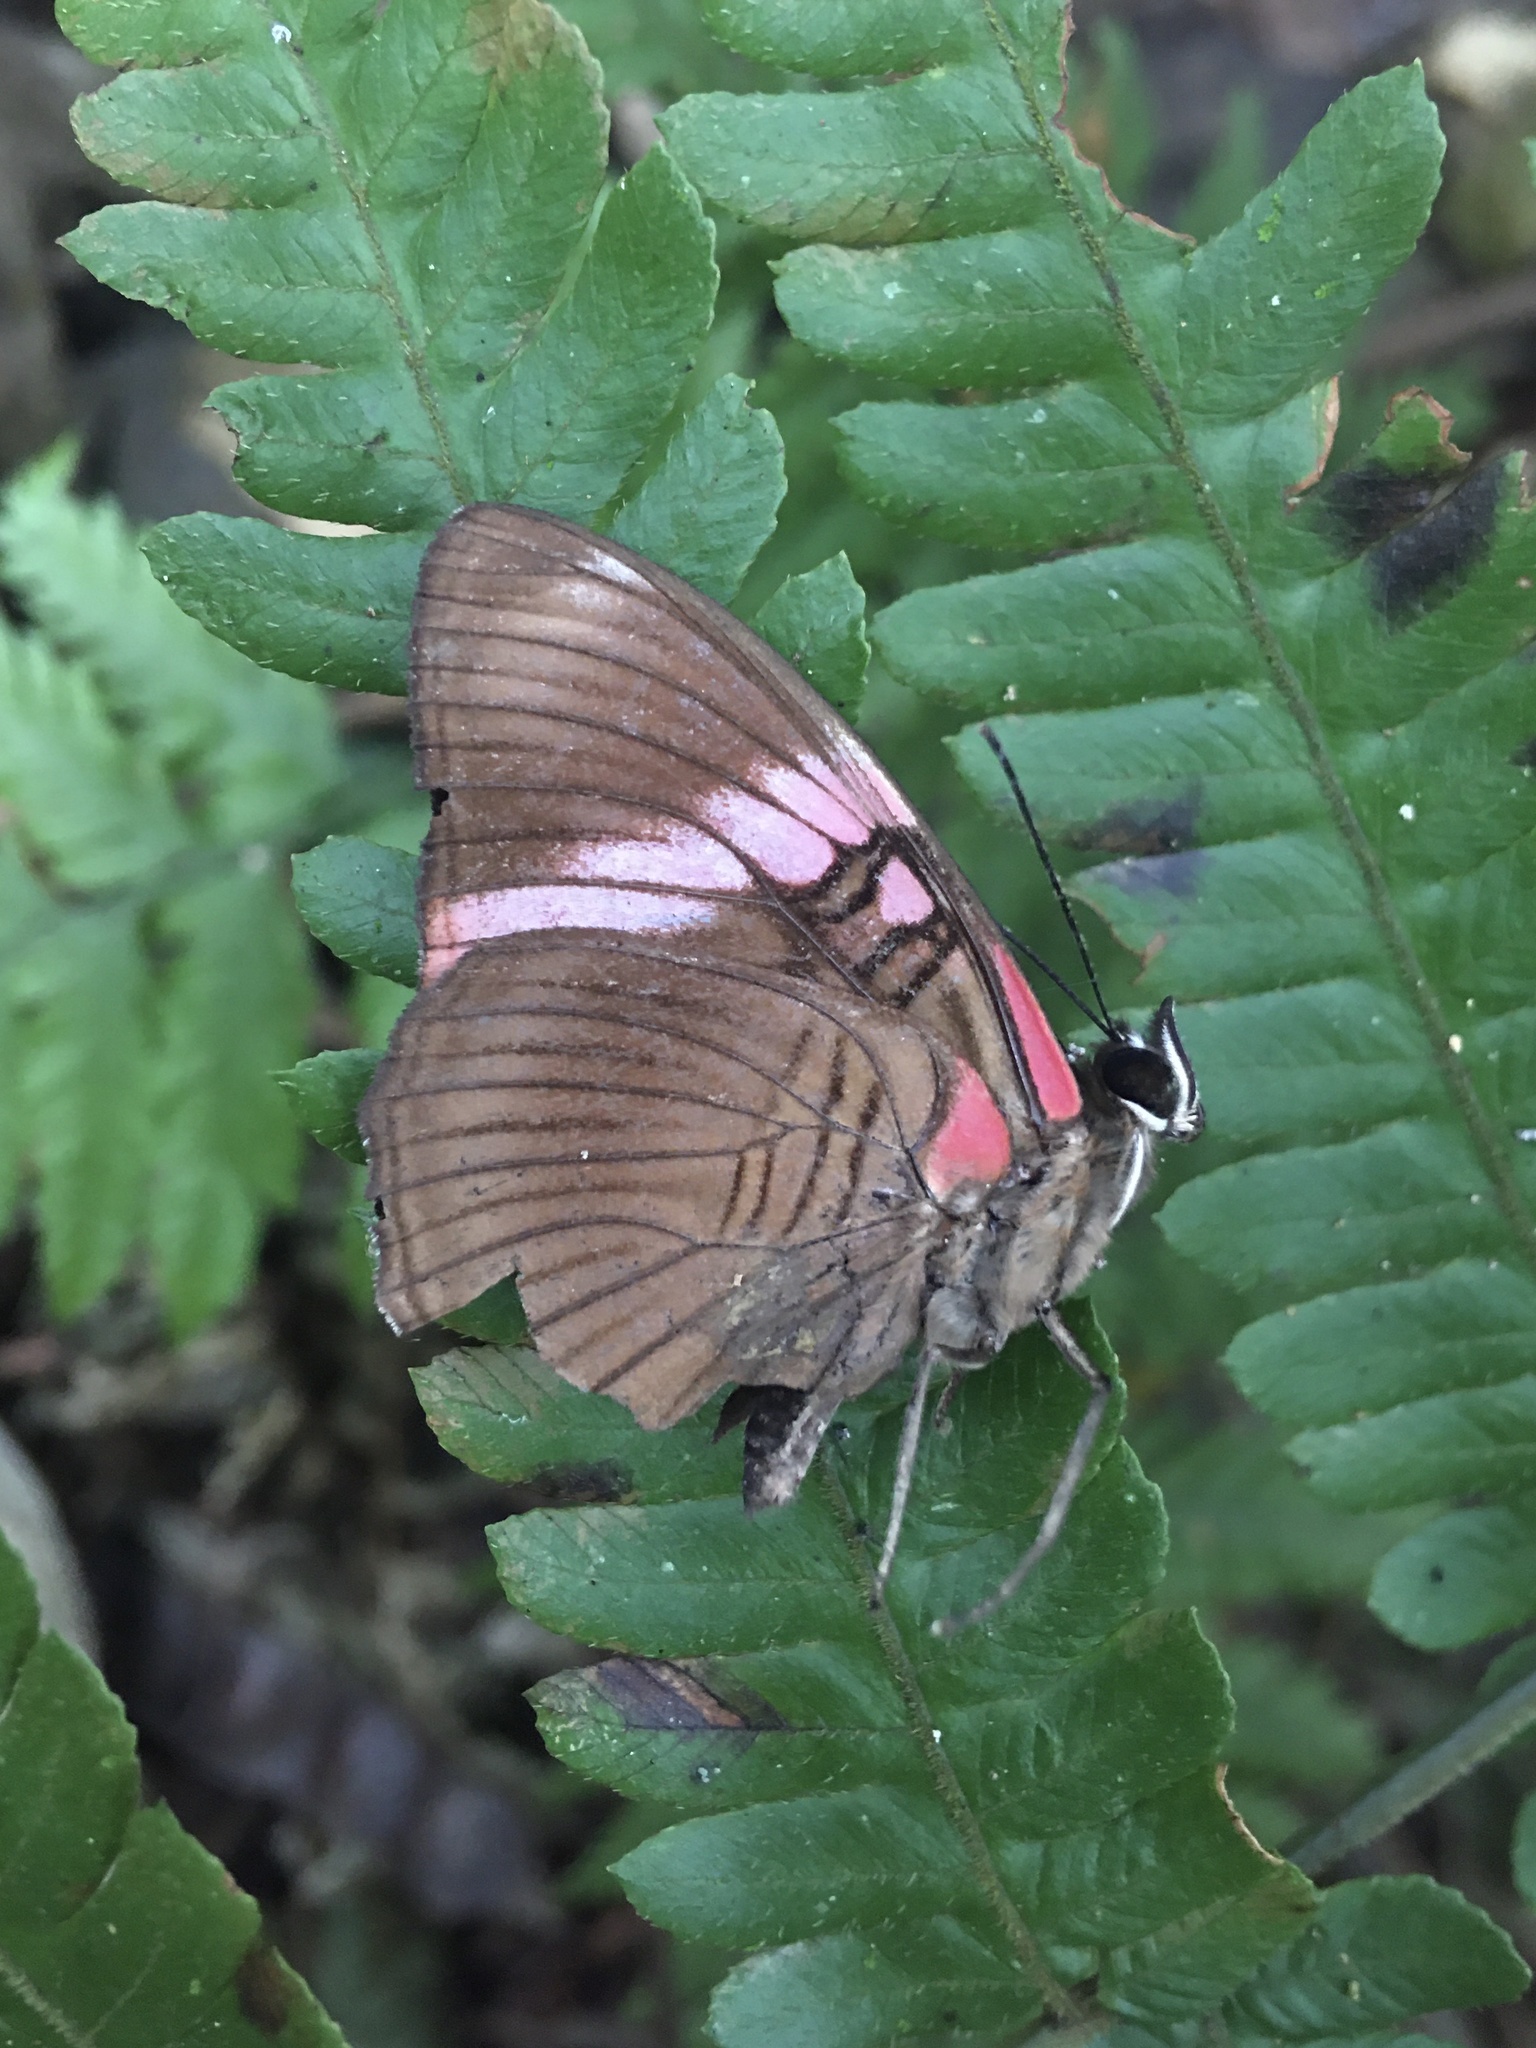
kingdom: Animalia
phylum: Arthropoda
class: Insecta
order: Lepidoptera
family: Nymphalidae
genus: Limenitis
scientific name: Limenitis isis
